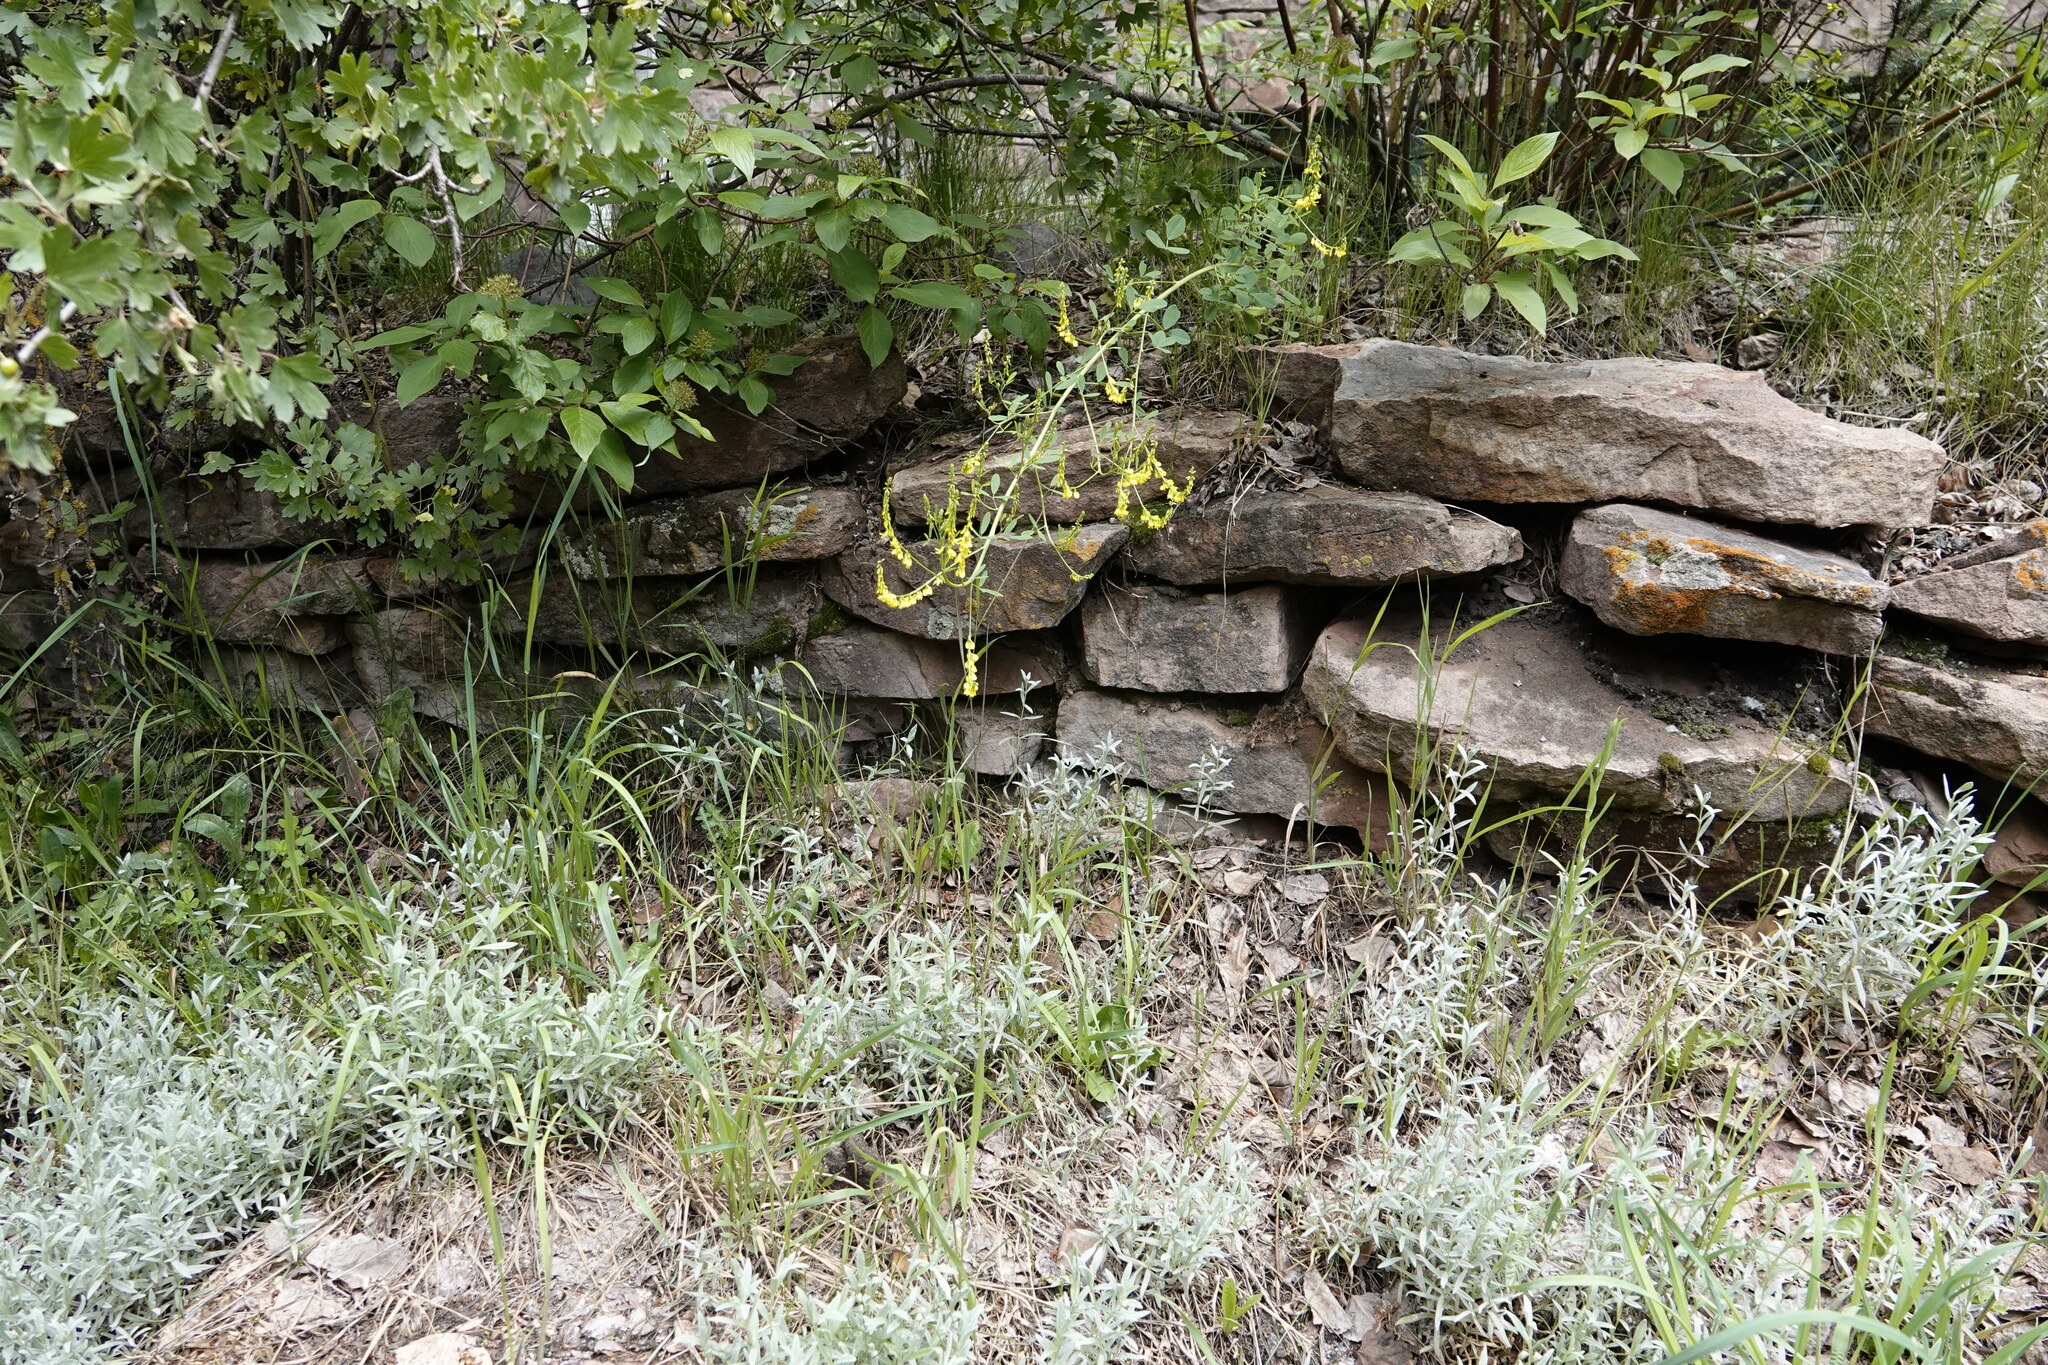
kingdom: Plantae
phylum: Tracheophyta
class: Magnoliopsida
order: Fabales
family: Fabaceae
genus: Melilotus
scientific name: Melilotus officinalis
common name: Sweetclover
